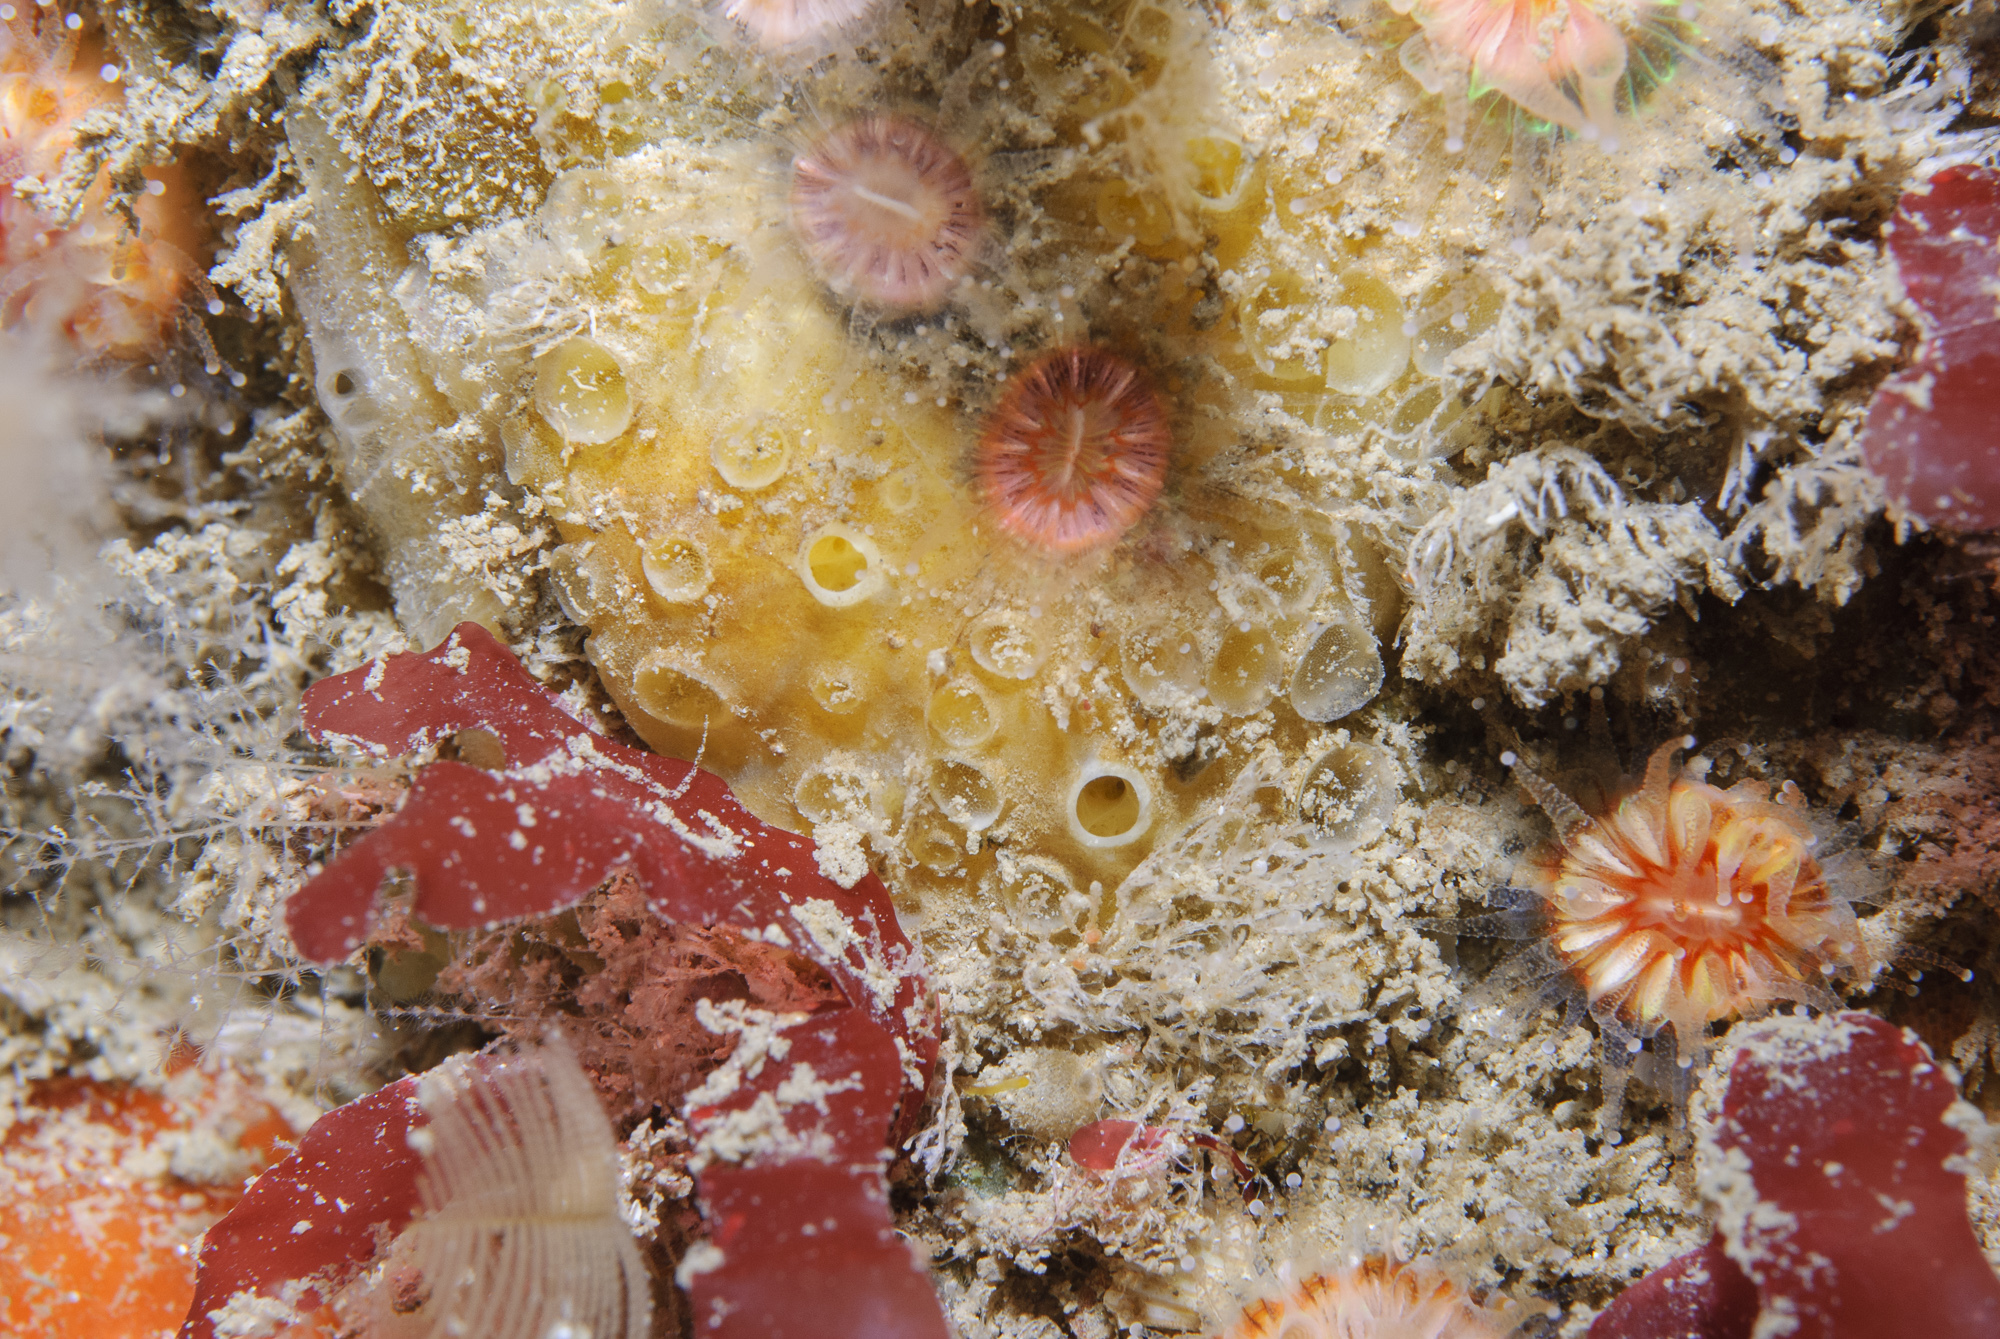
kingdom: Animalia
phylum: Porifera
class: Demospongiae
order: Poecilosclerida
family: Coelosphaeridae
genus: Lissodendoryx
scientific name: Lissodendoryx jenjonesae
